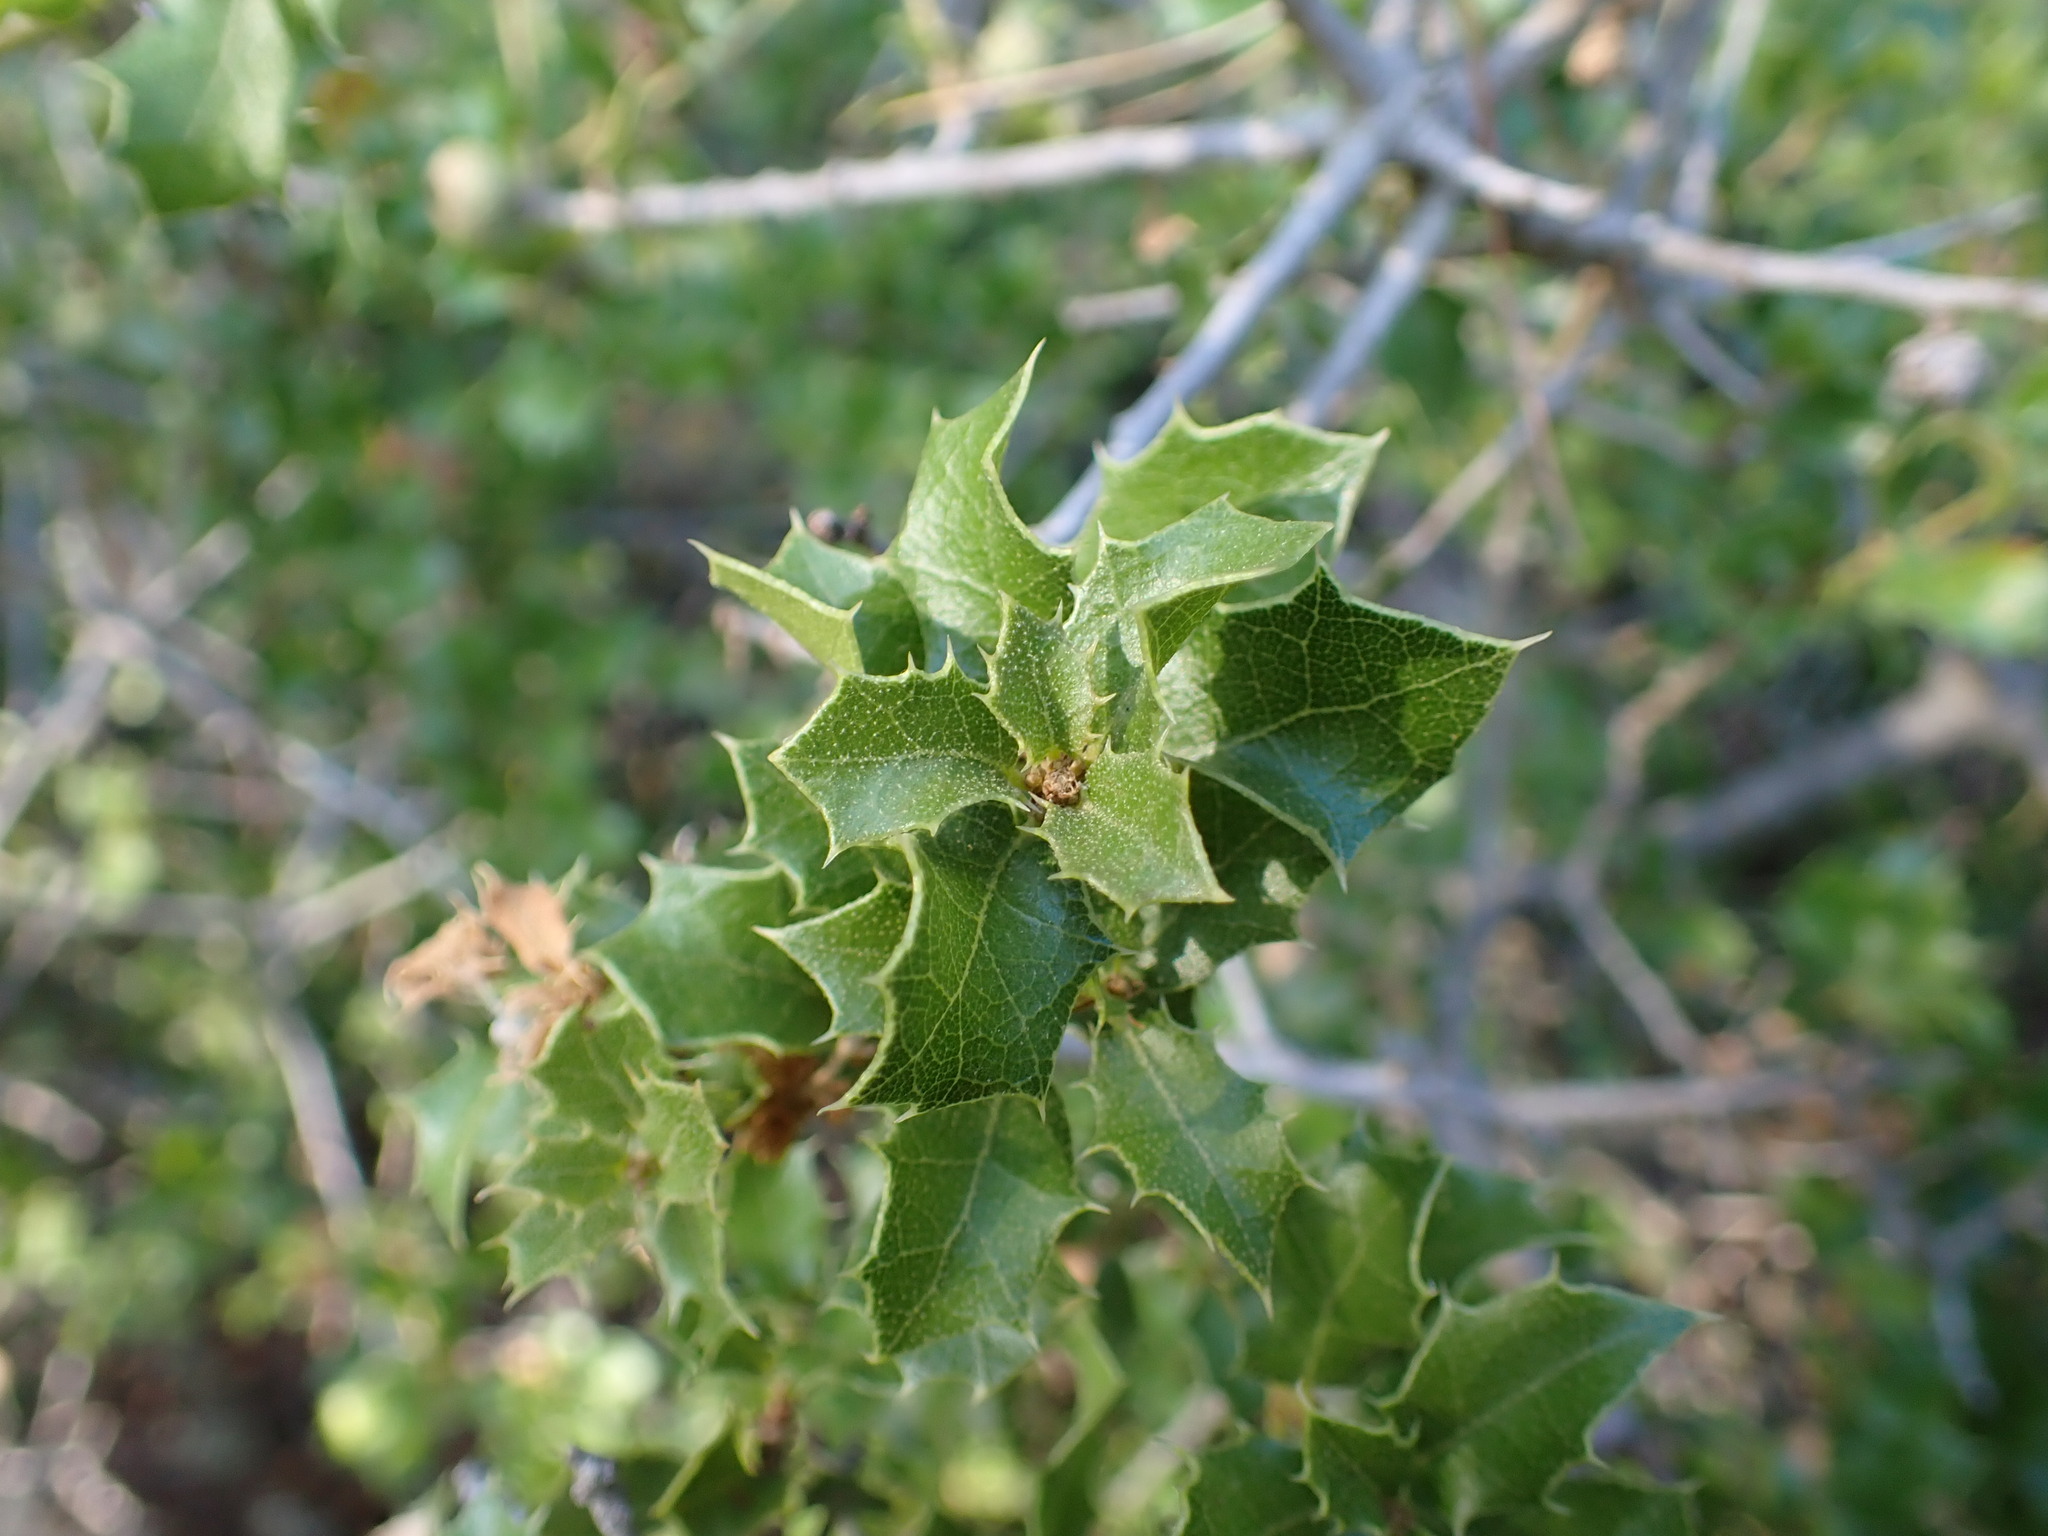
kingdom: Plantae
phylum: Tracheophyta
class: Magnoliopsida
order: Fagales
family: Fagaceae
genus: Quercus
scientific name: Quercus coccifera
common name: Kermes oak
